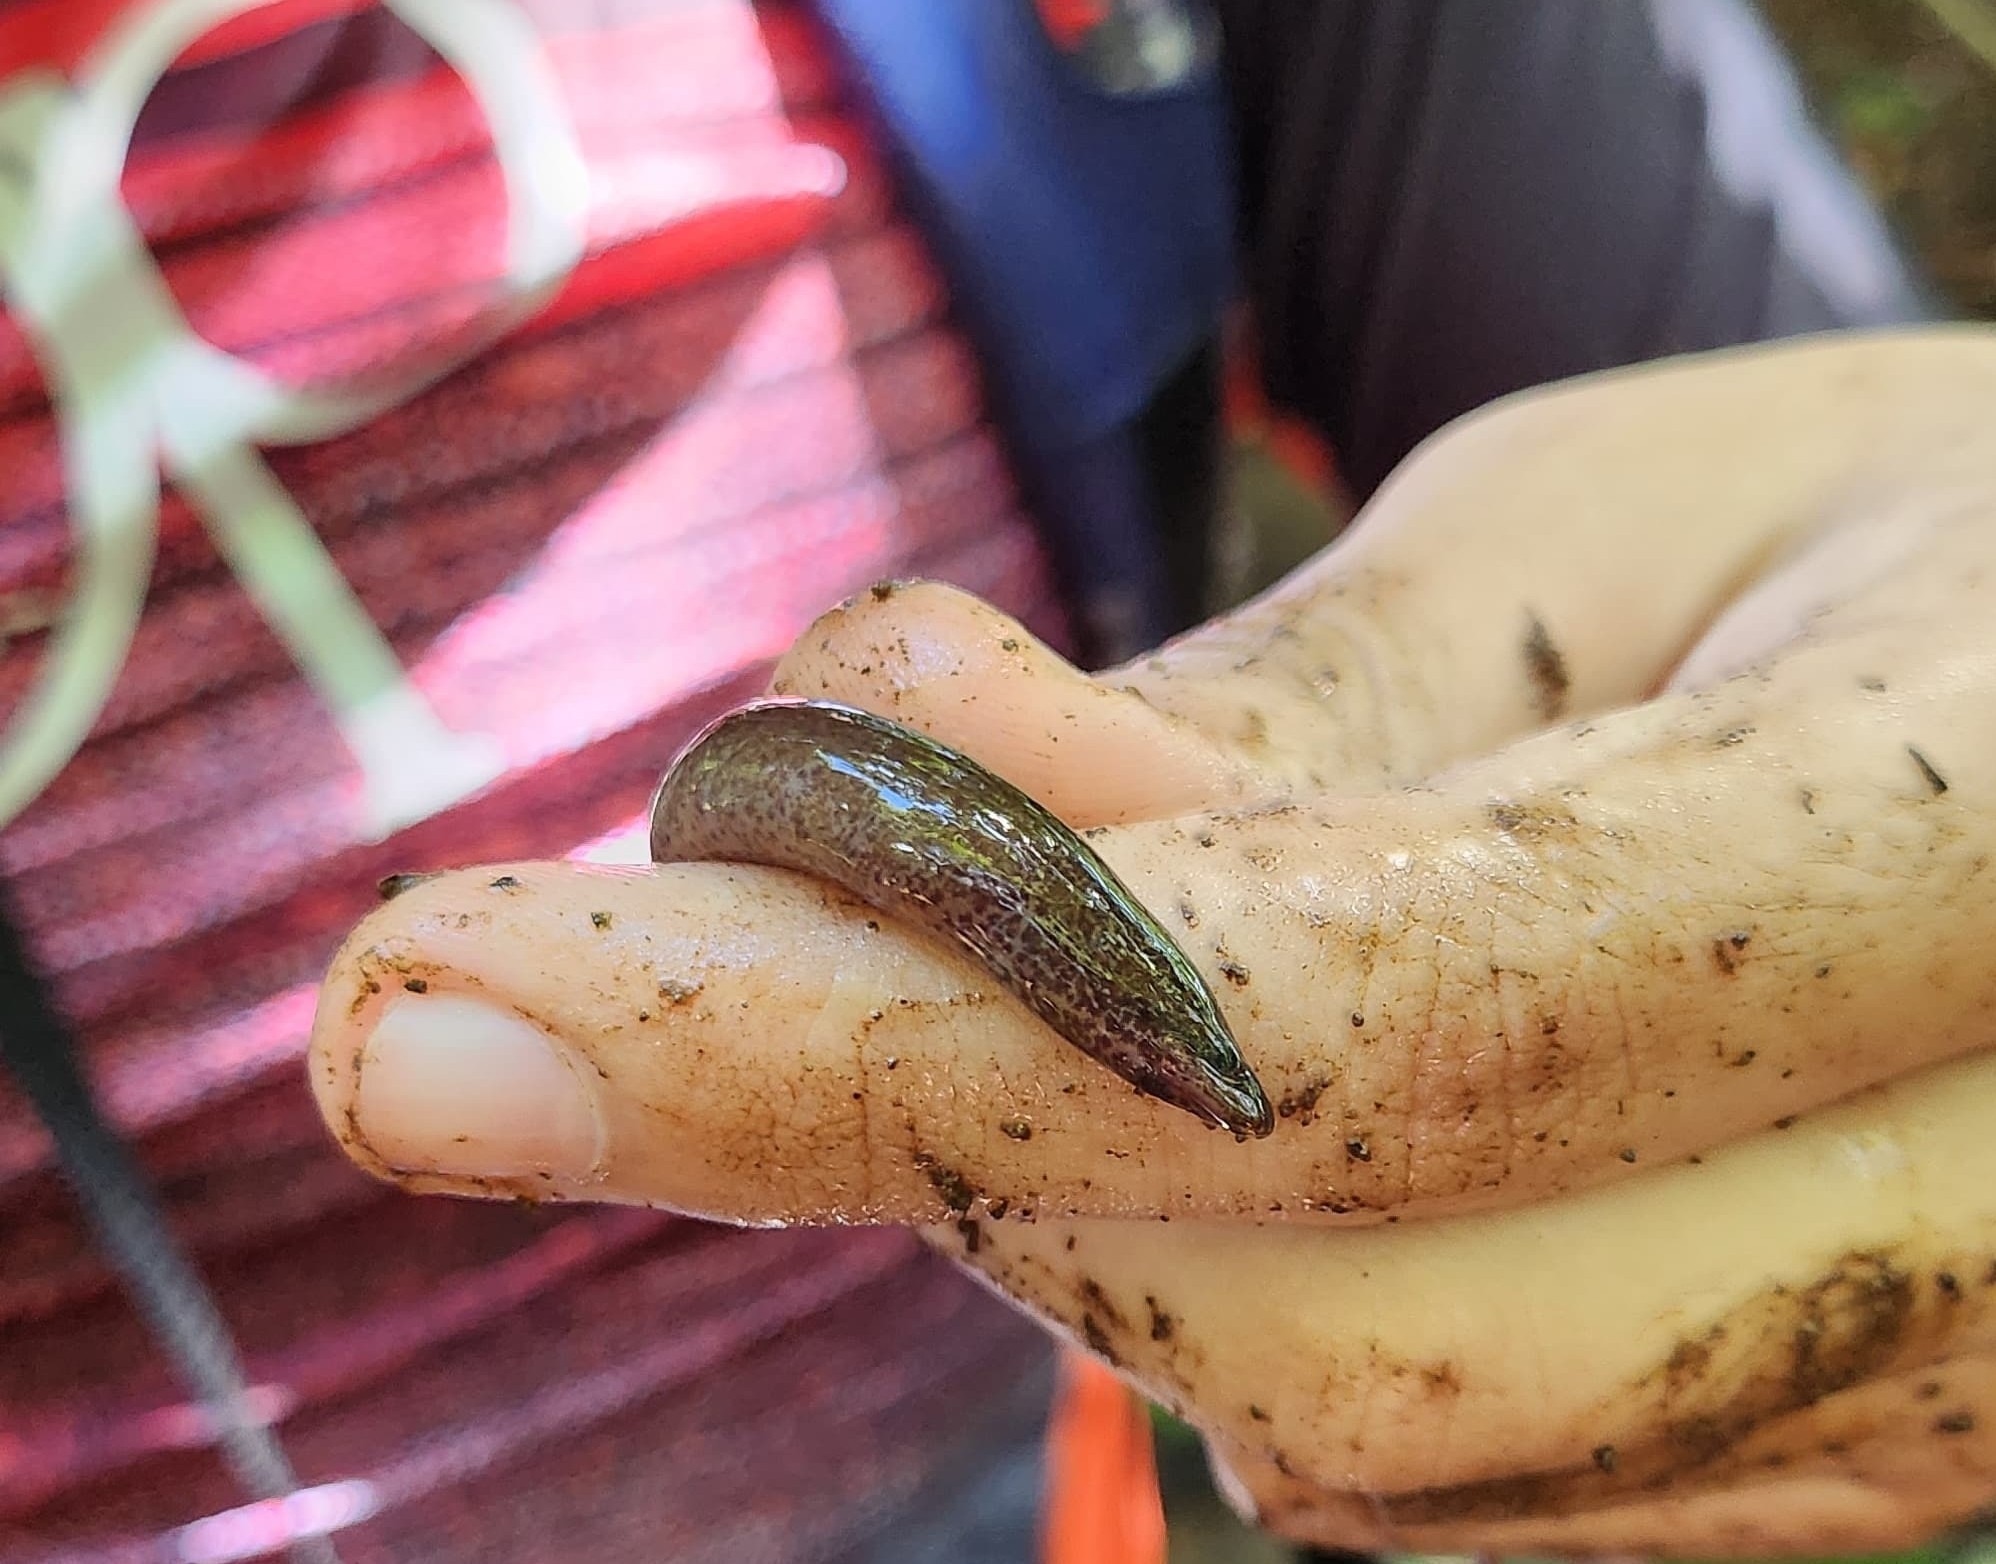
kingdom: Animalia
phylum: Chordata
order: Synbranchiformes
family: Synbranchidae
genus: Synbranchus
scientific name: Synbranchus marmoratus
